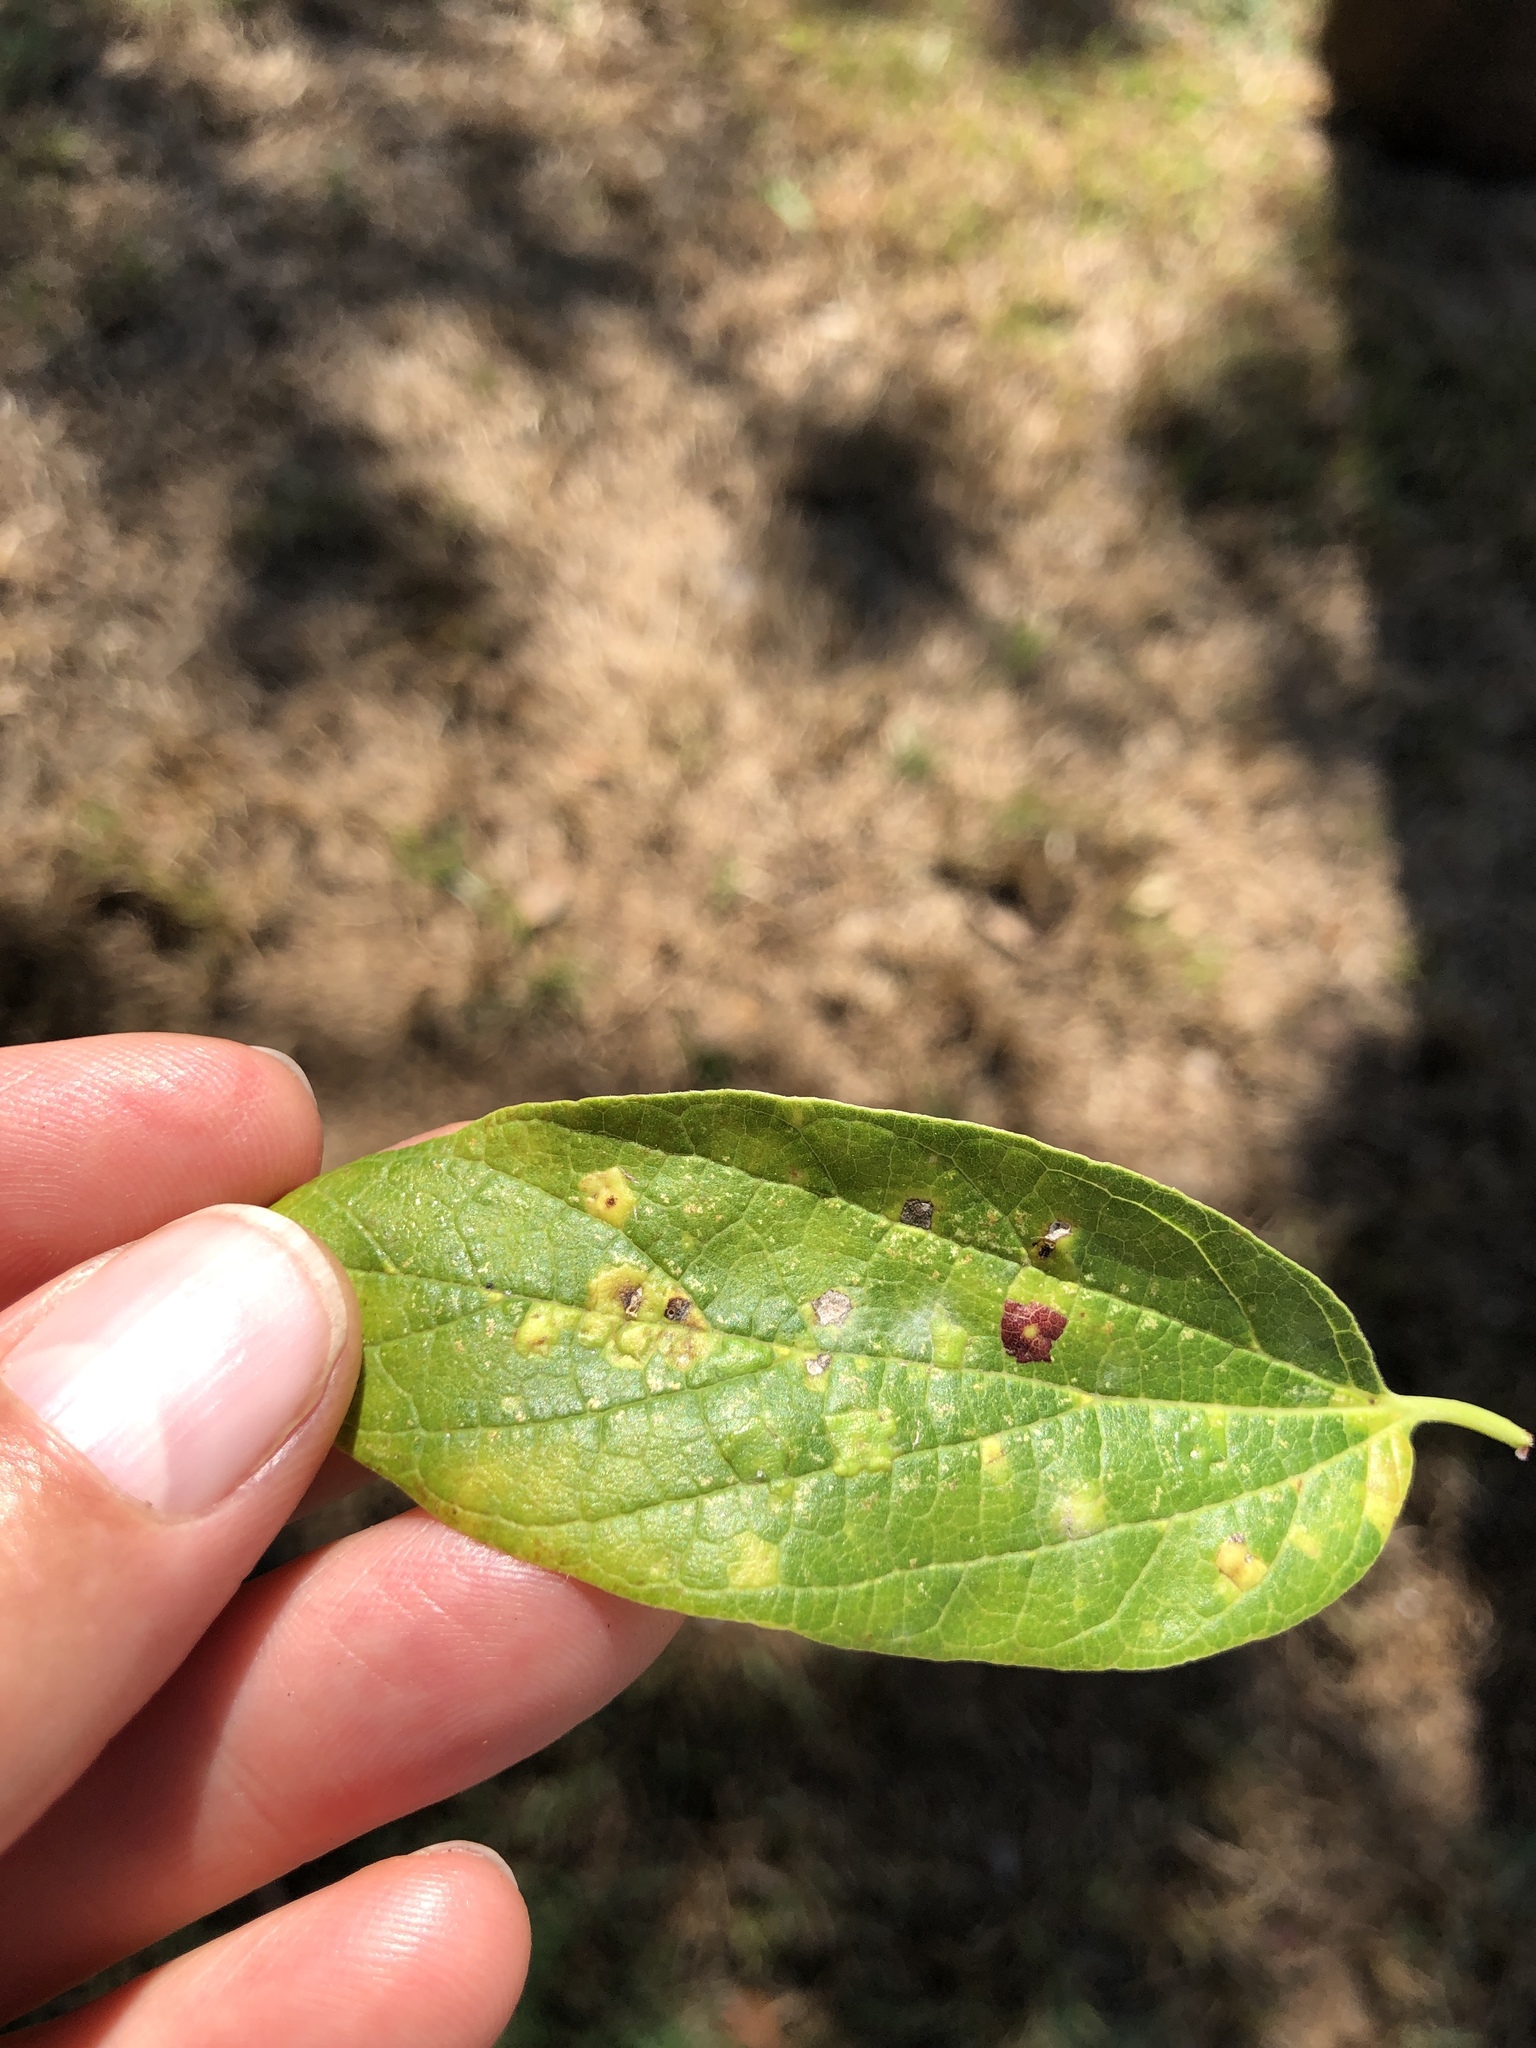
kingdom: Animalia
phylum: Arthropoda
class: Insecta
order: Hemiptera
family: Aphalaridae
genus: Pachypsylla
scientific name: Pachypsylla celtidisvesicula
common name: Hackberry blister gall psyllid
